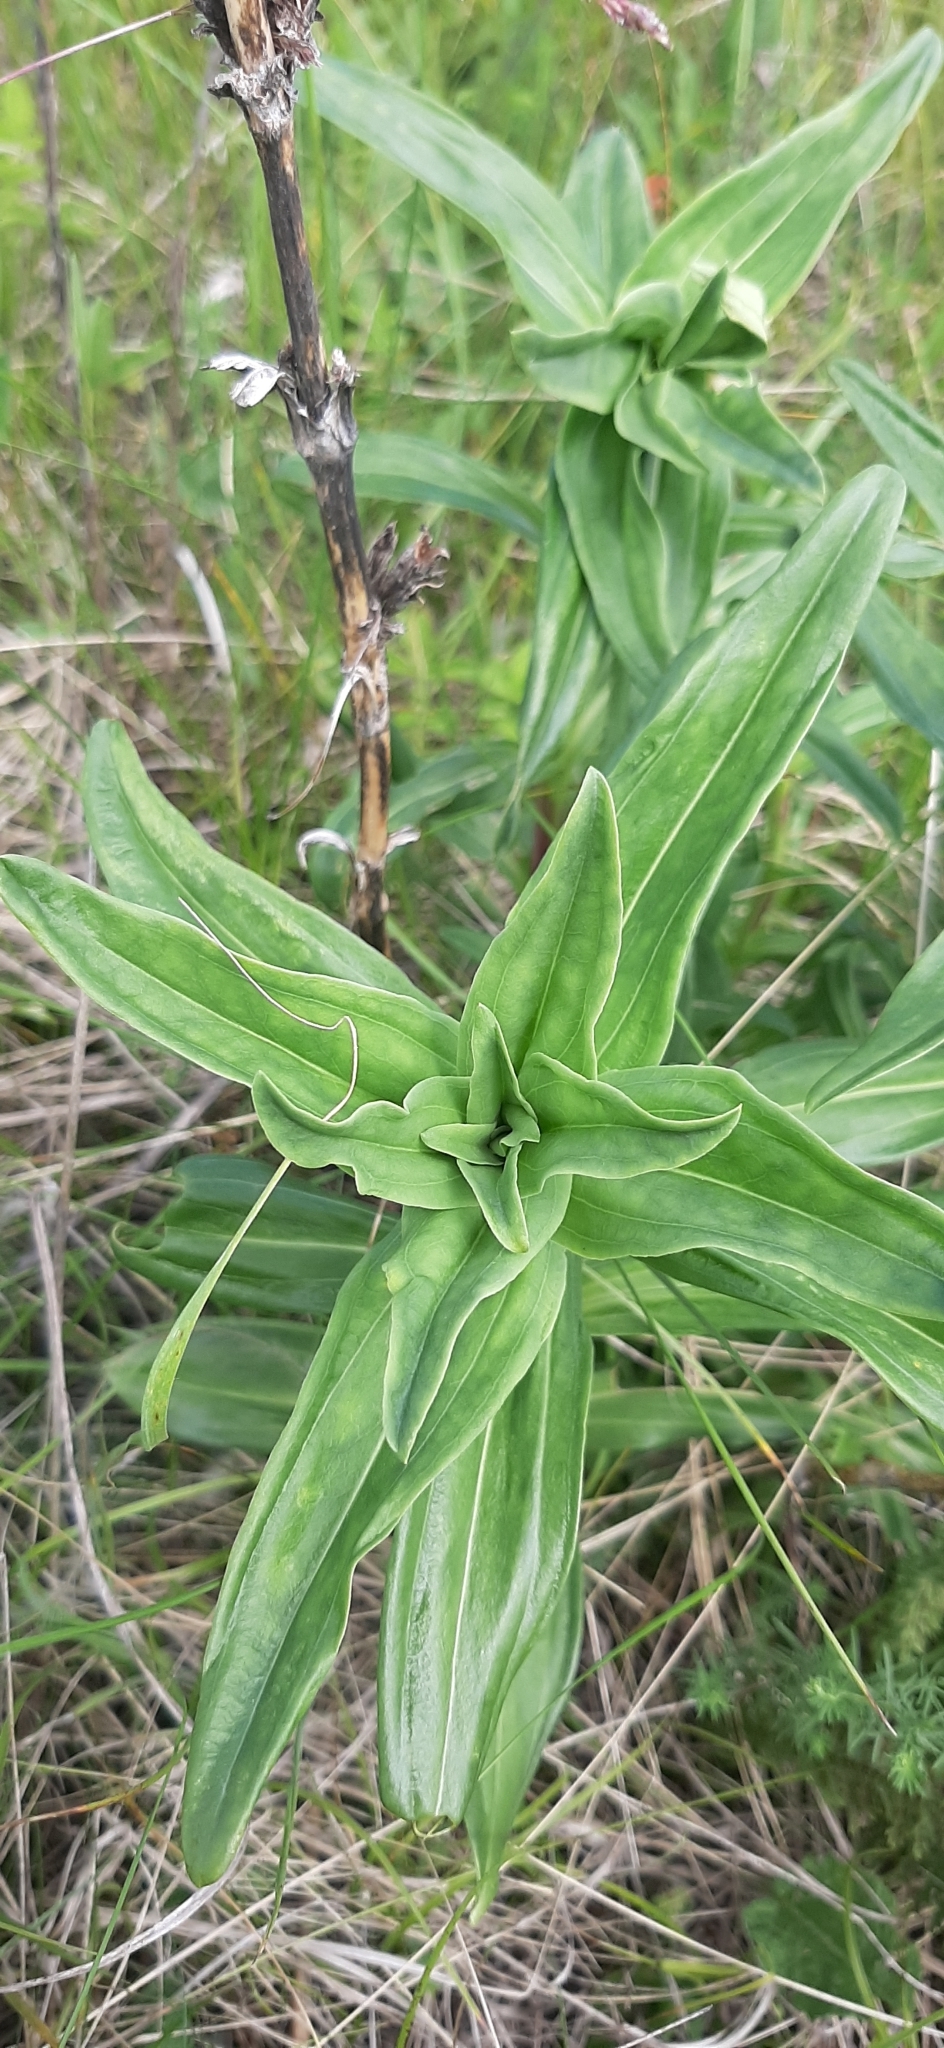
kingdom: Plantae
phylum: Tracheophyta
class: Magnoliopsida
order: Gentianales
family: Gentianaceae
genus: Gentiana
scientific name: Gentiana cruciata
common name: Cross gentian
